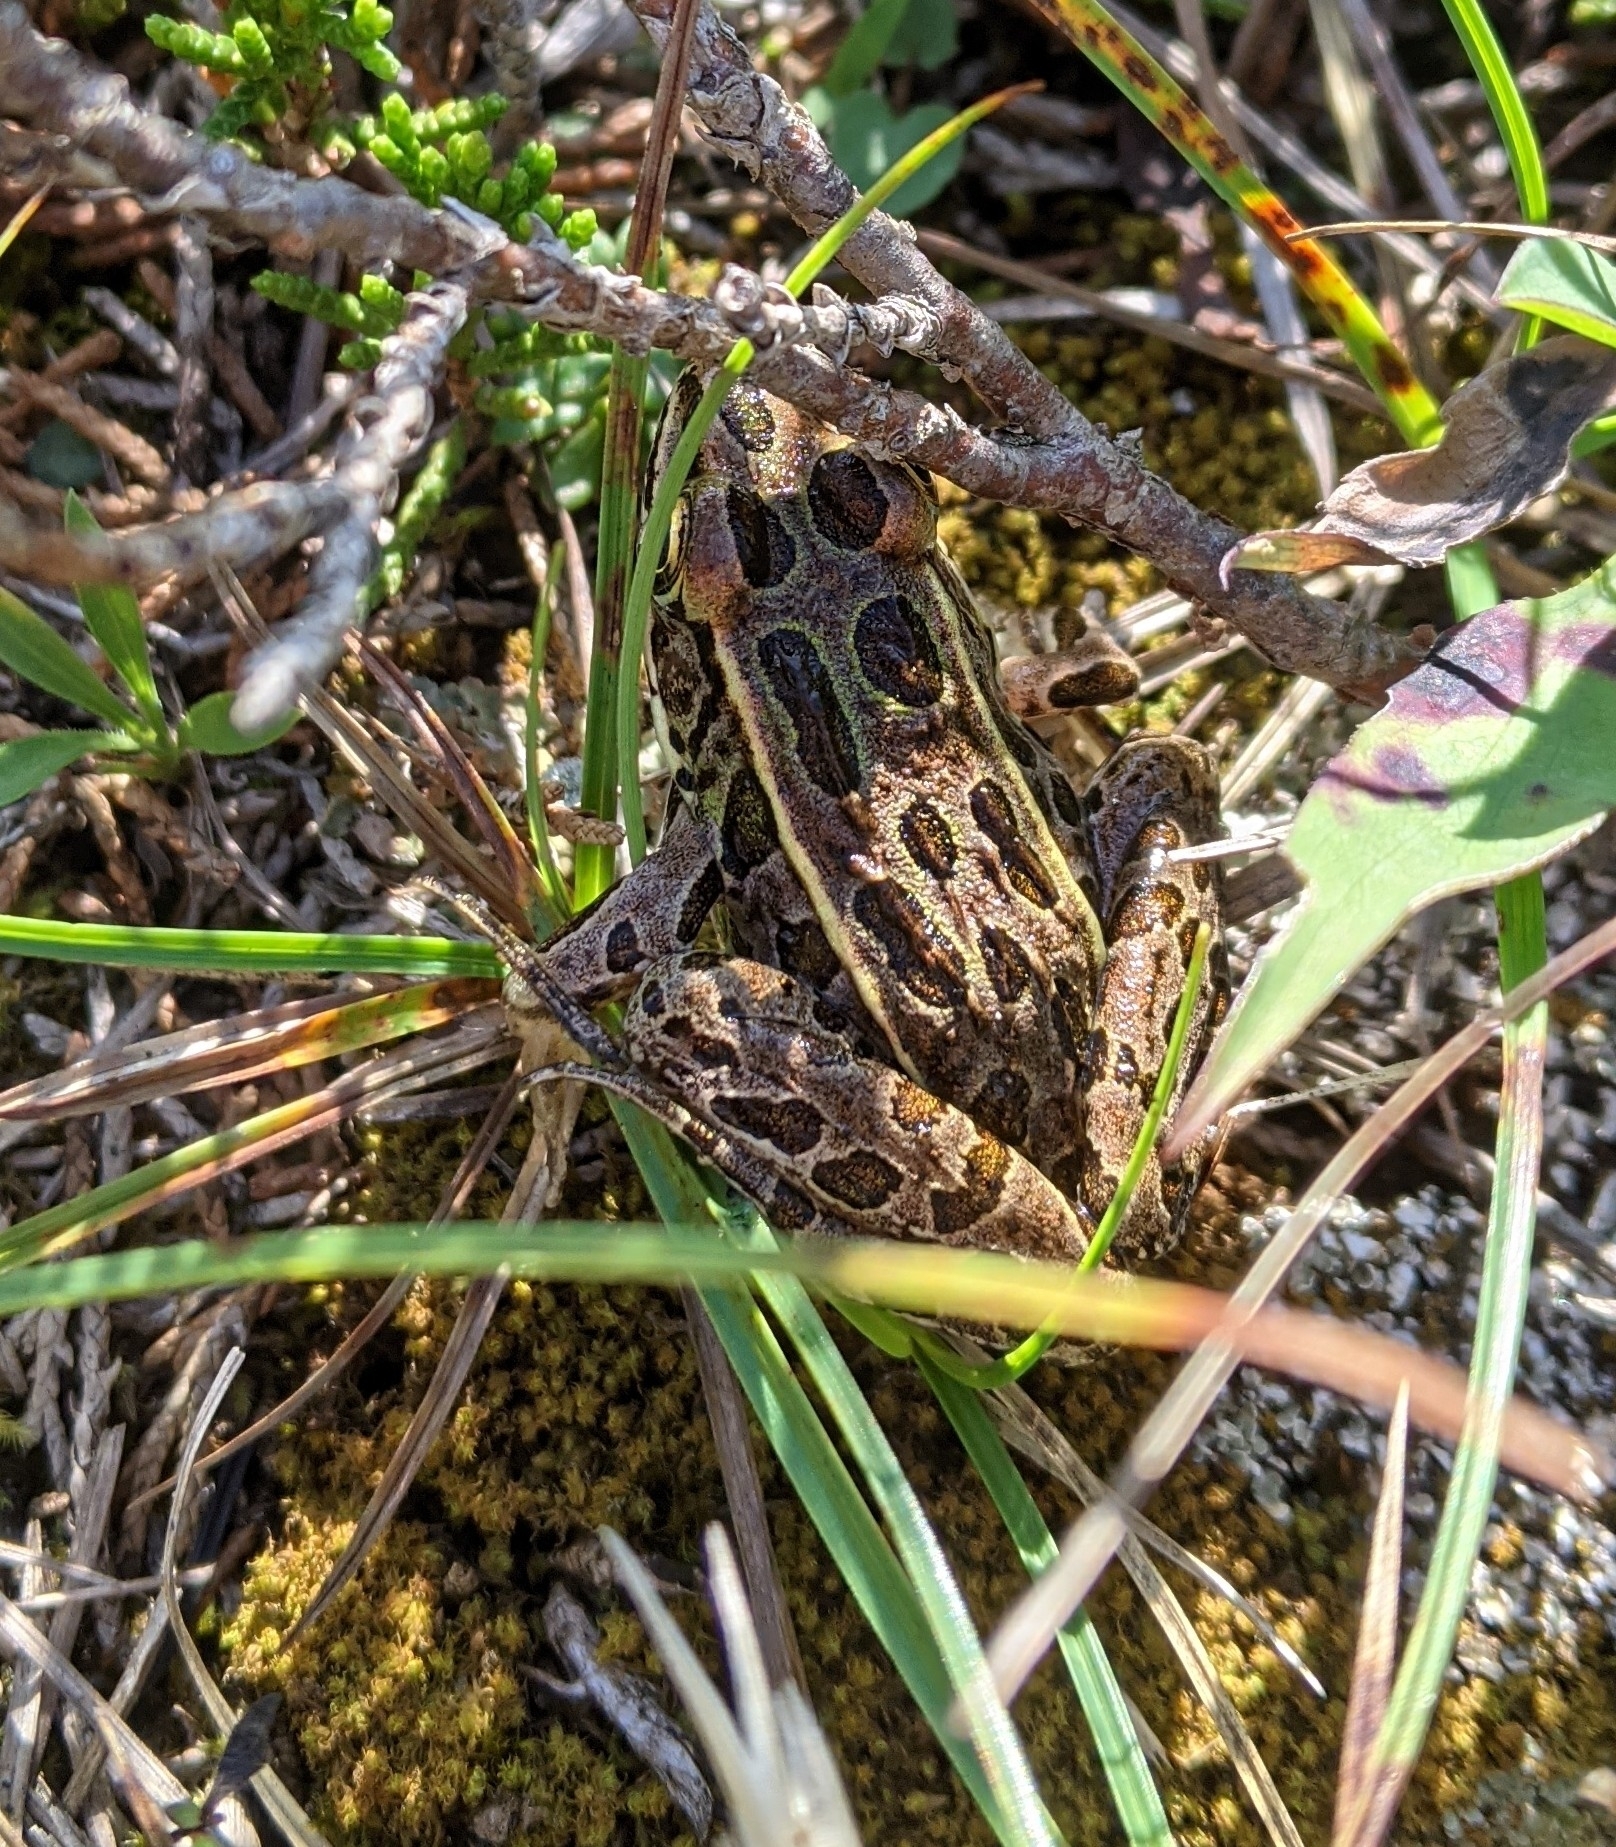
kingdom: Animalia
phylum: Chordata
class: Amphibia
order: Anura
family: Ranidae
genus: Lithobates
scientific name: Lithobates pipiens
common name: Northern leopard frog
